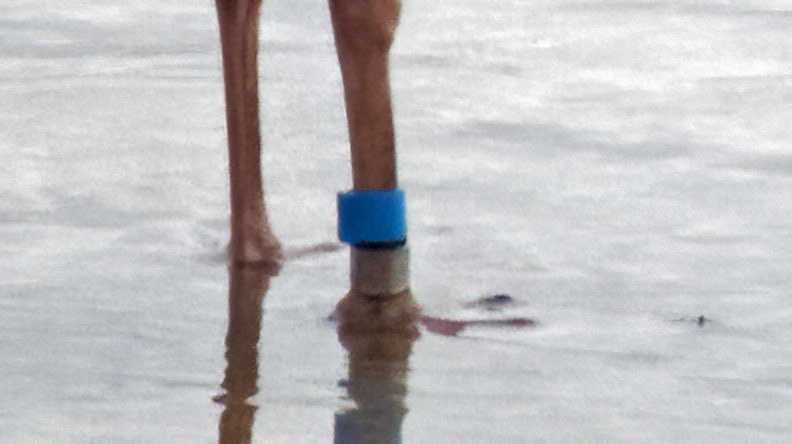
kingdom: Animalia
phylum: Chordata
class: Aves
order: Charadriiformes
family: Laridae
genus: Larus
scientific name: Larus occidentalis
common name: Western gull
